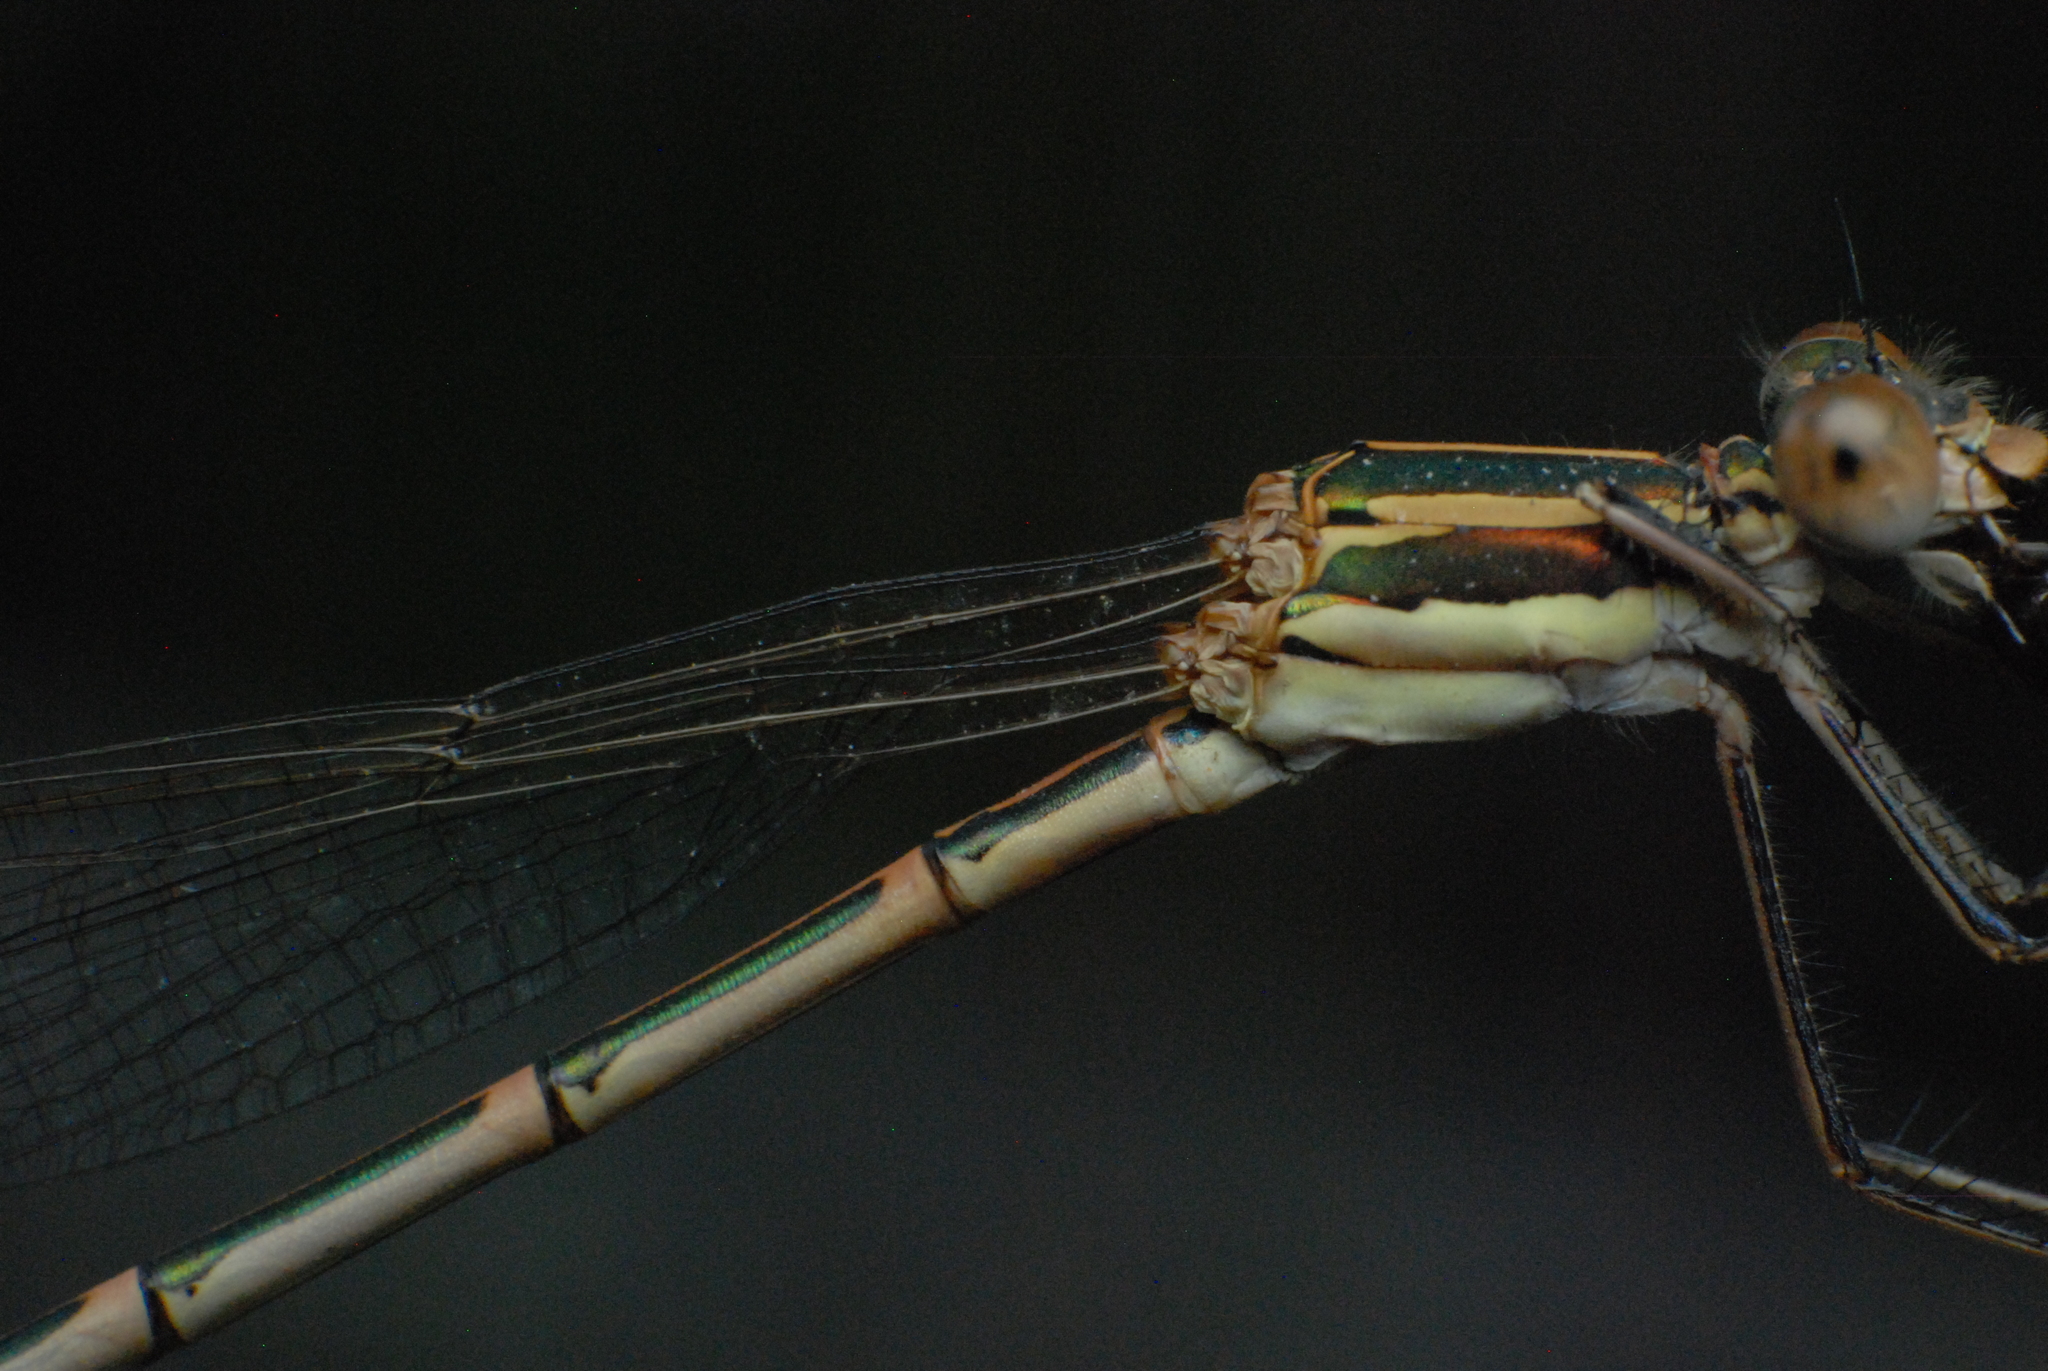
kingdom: Animalia
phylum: Arthropoda
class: Insecta
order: Odonata
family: Lestidae
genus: Austrolestes
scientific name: Austrolestes analis
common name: Slender ringtail
